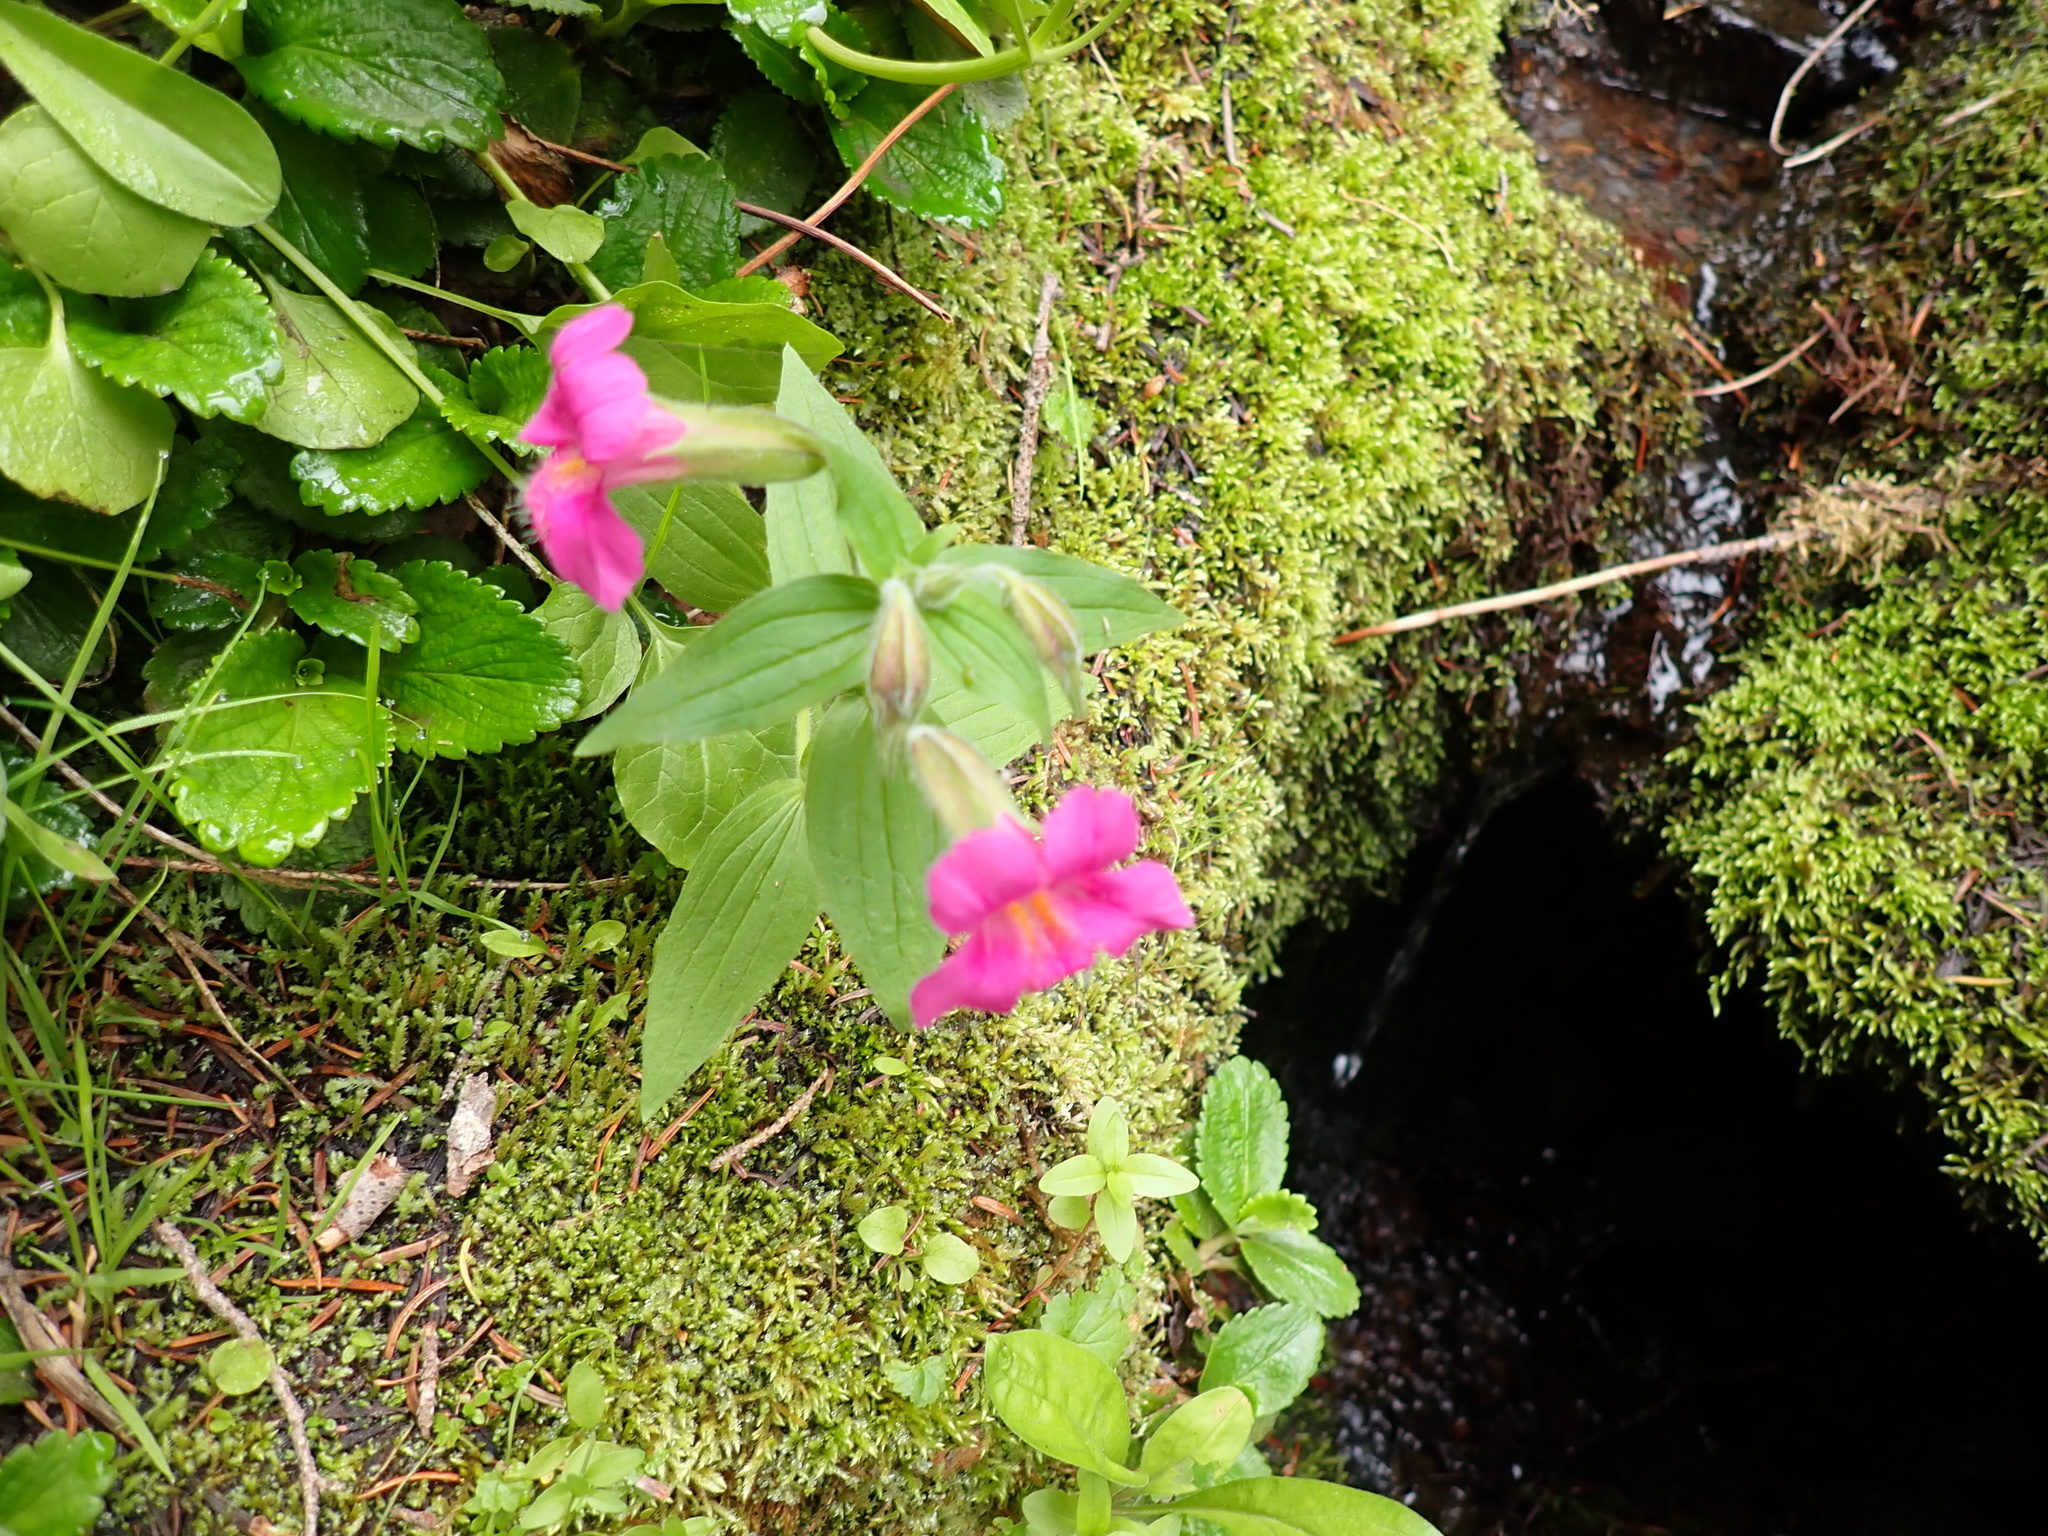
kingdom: Plantae
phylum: Tracheophyta
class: Magnoliopsida
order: Lamiales
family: Phrymaceae
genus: Erythranthe
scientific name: Erythranthe lewisii
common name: Lewis's monkey-flower
